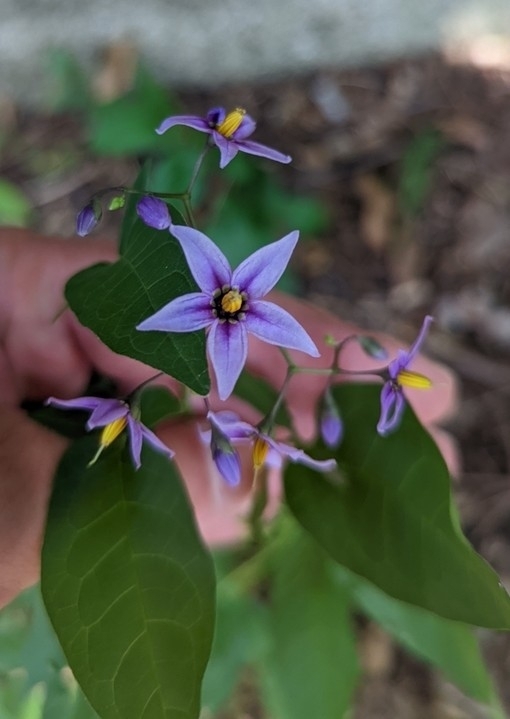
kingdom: Plantae
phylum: Tracheophyta
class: Magnoliopsida
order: Solanales
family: Solanaceae
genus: Solanum
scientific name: Solanum dulcamara
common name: Climbing nightshade
